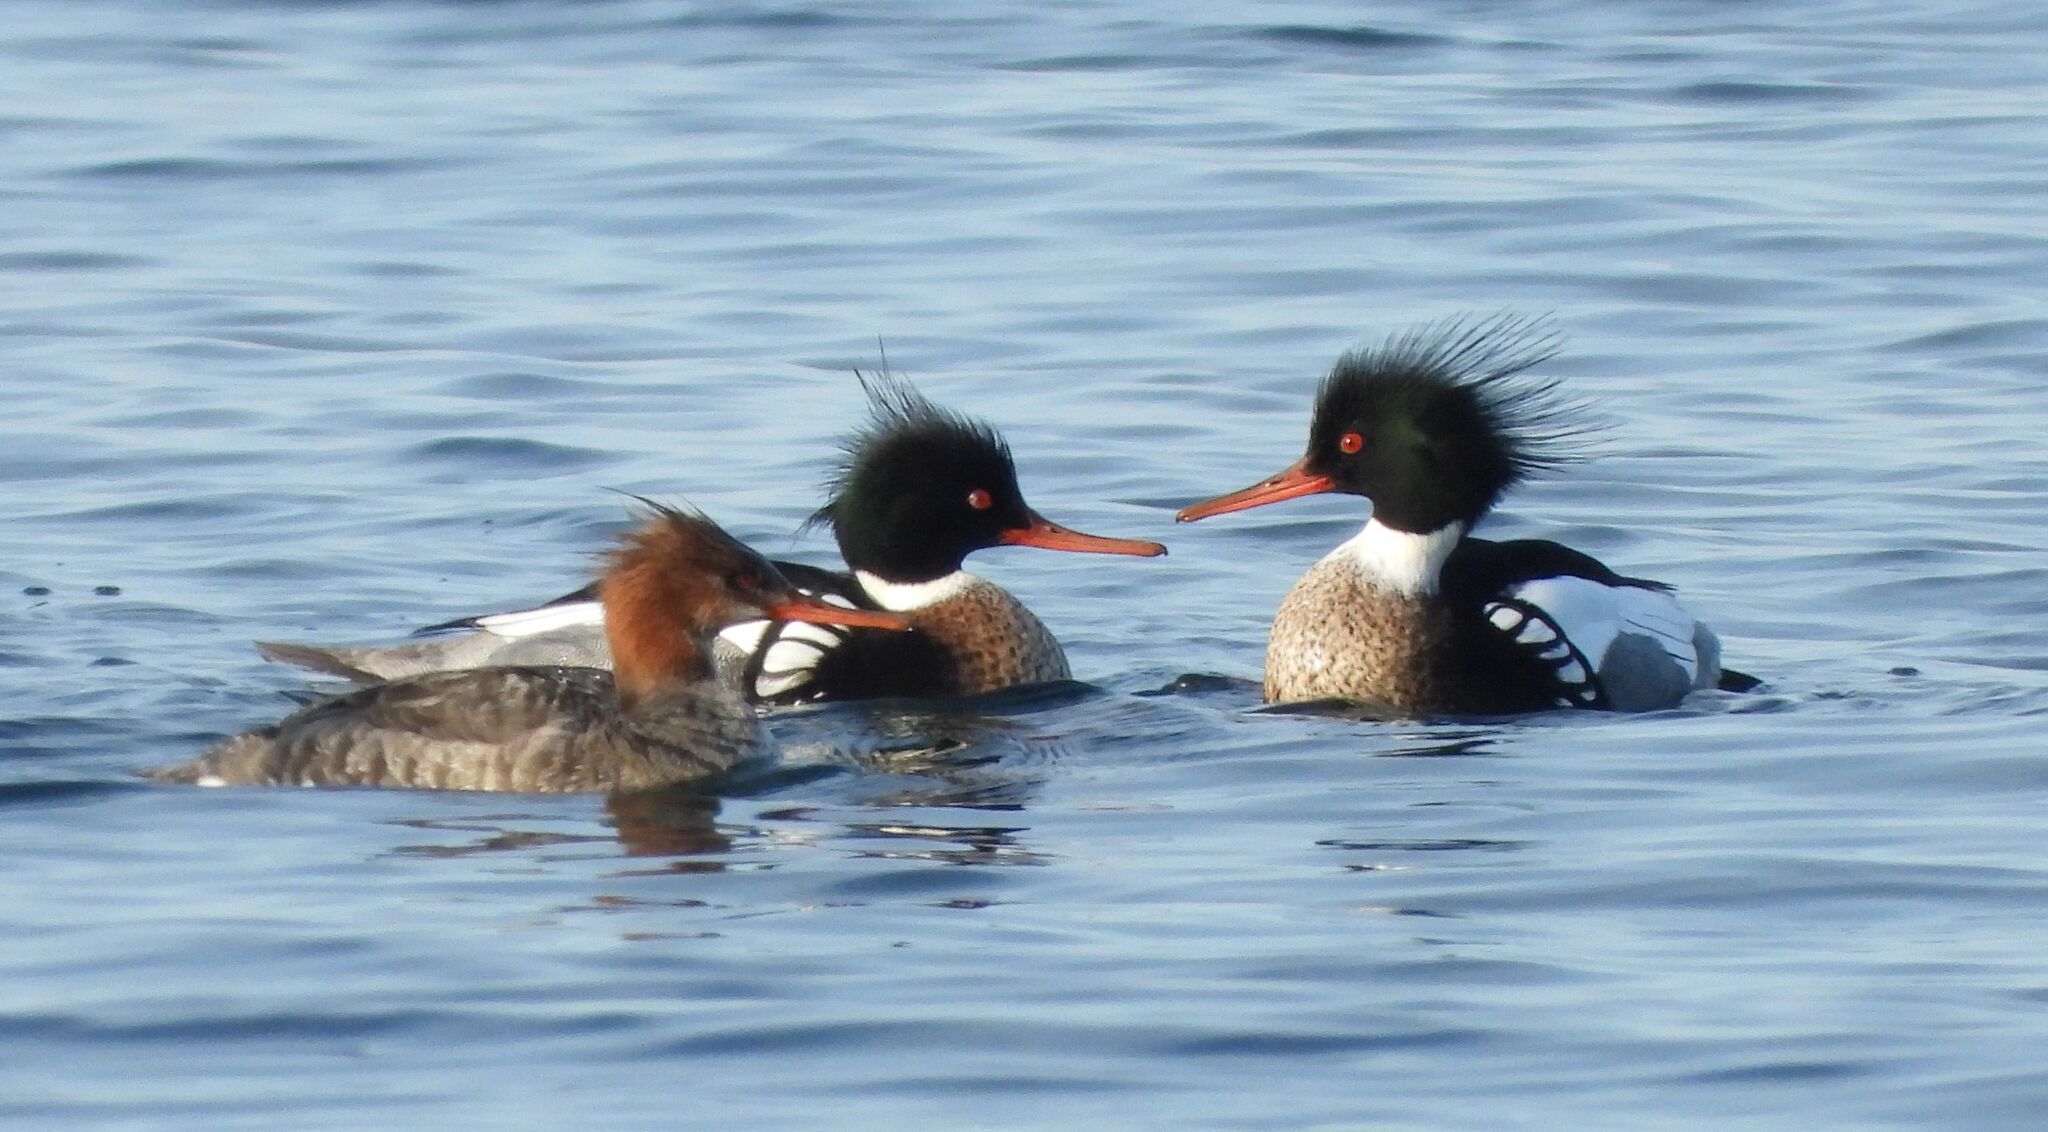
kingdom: Animalia
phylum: Chordata
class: Aves
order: Anseriformes
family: Anatidae
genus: Mergus
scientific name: Mergus serrator
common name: Red-breasted merganser
